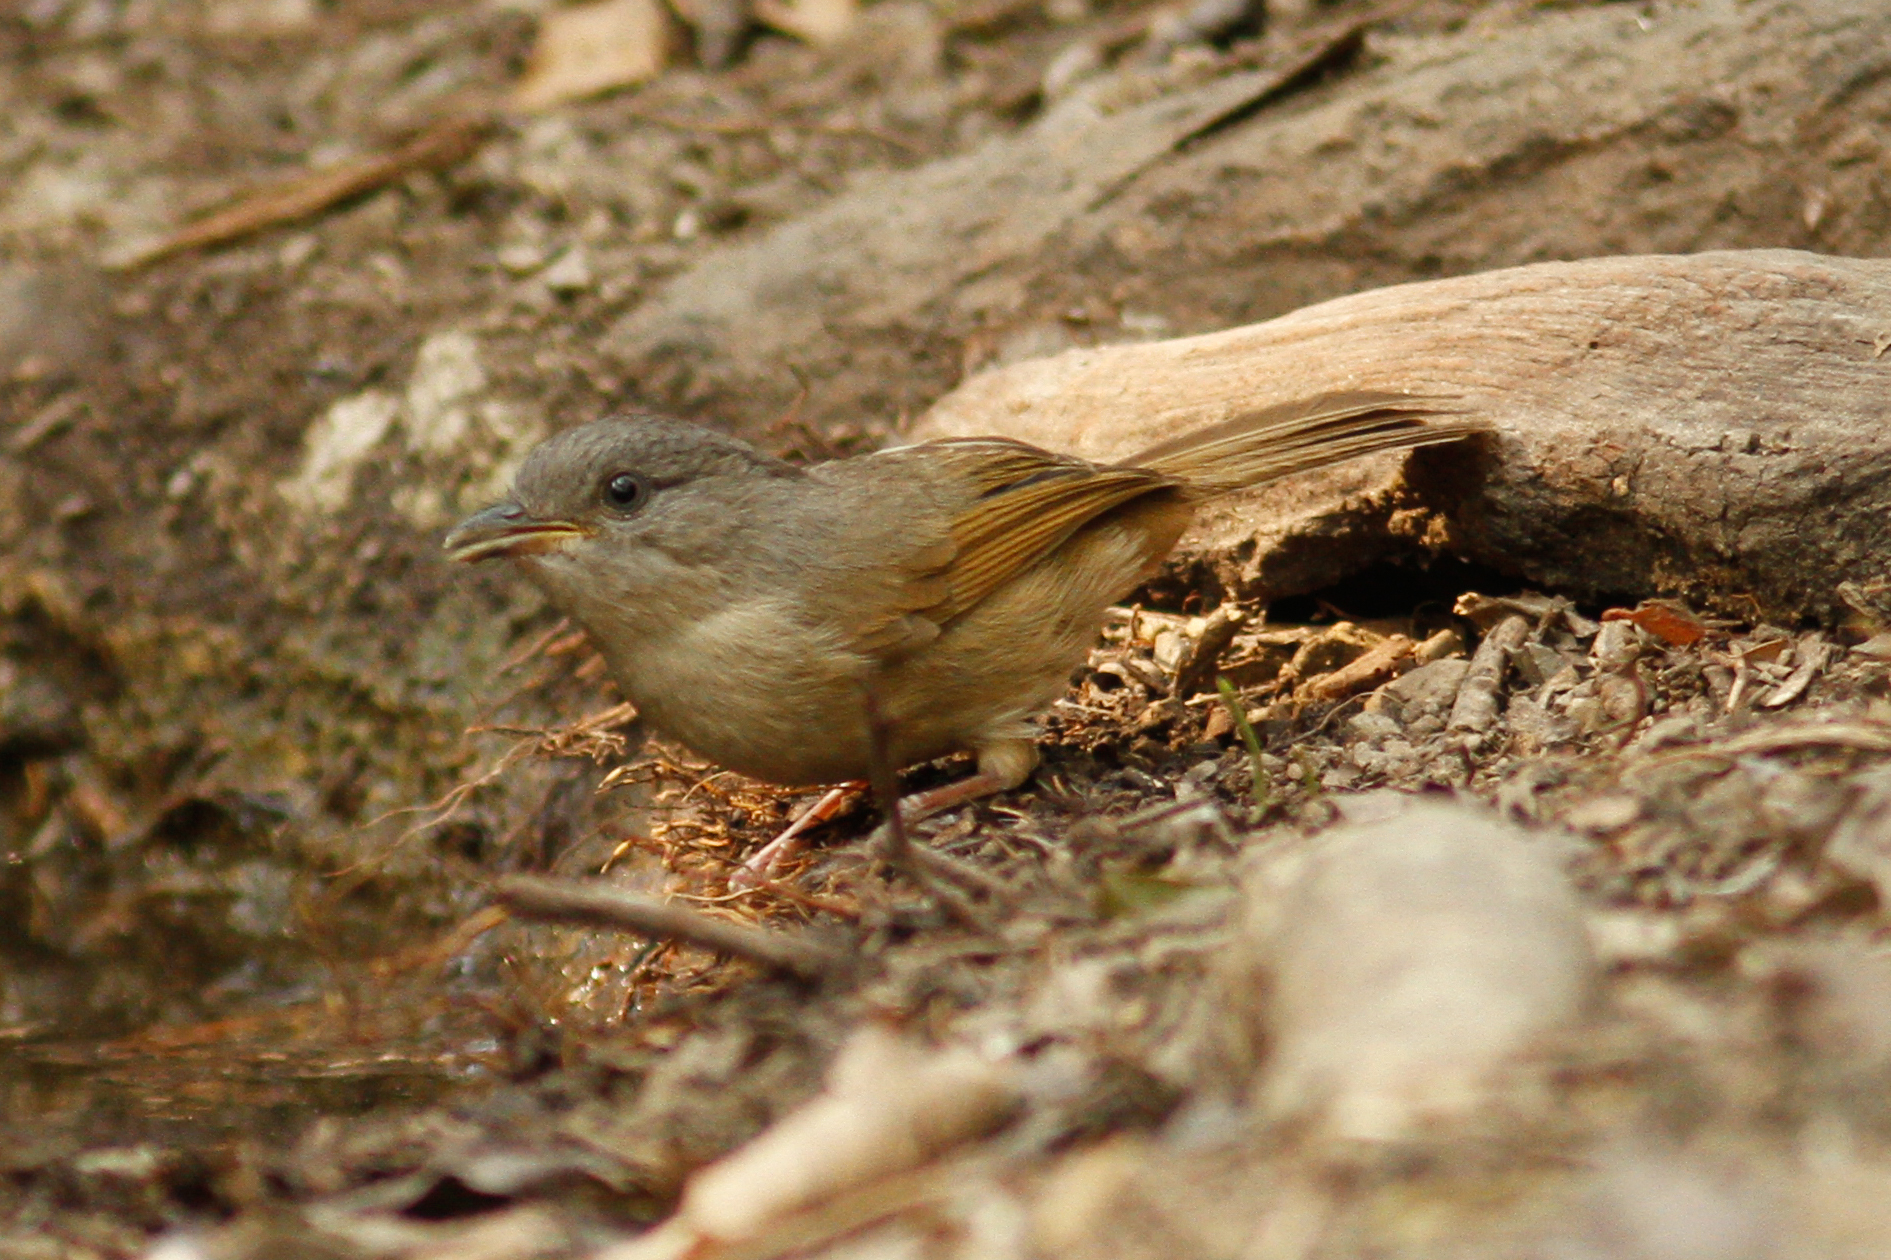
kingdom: Animalia
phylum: Chordata
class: Aves
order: Passeriformes
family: Pellorneidae
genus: Alcippe
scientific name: Alcippe poioicephala
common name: Brown-cheeked fulvetta
